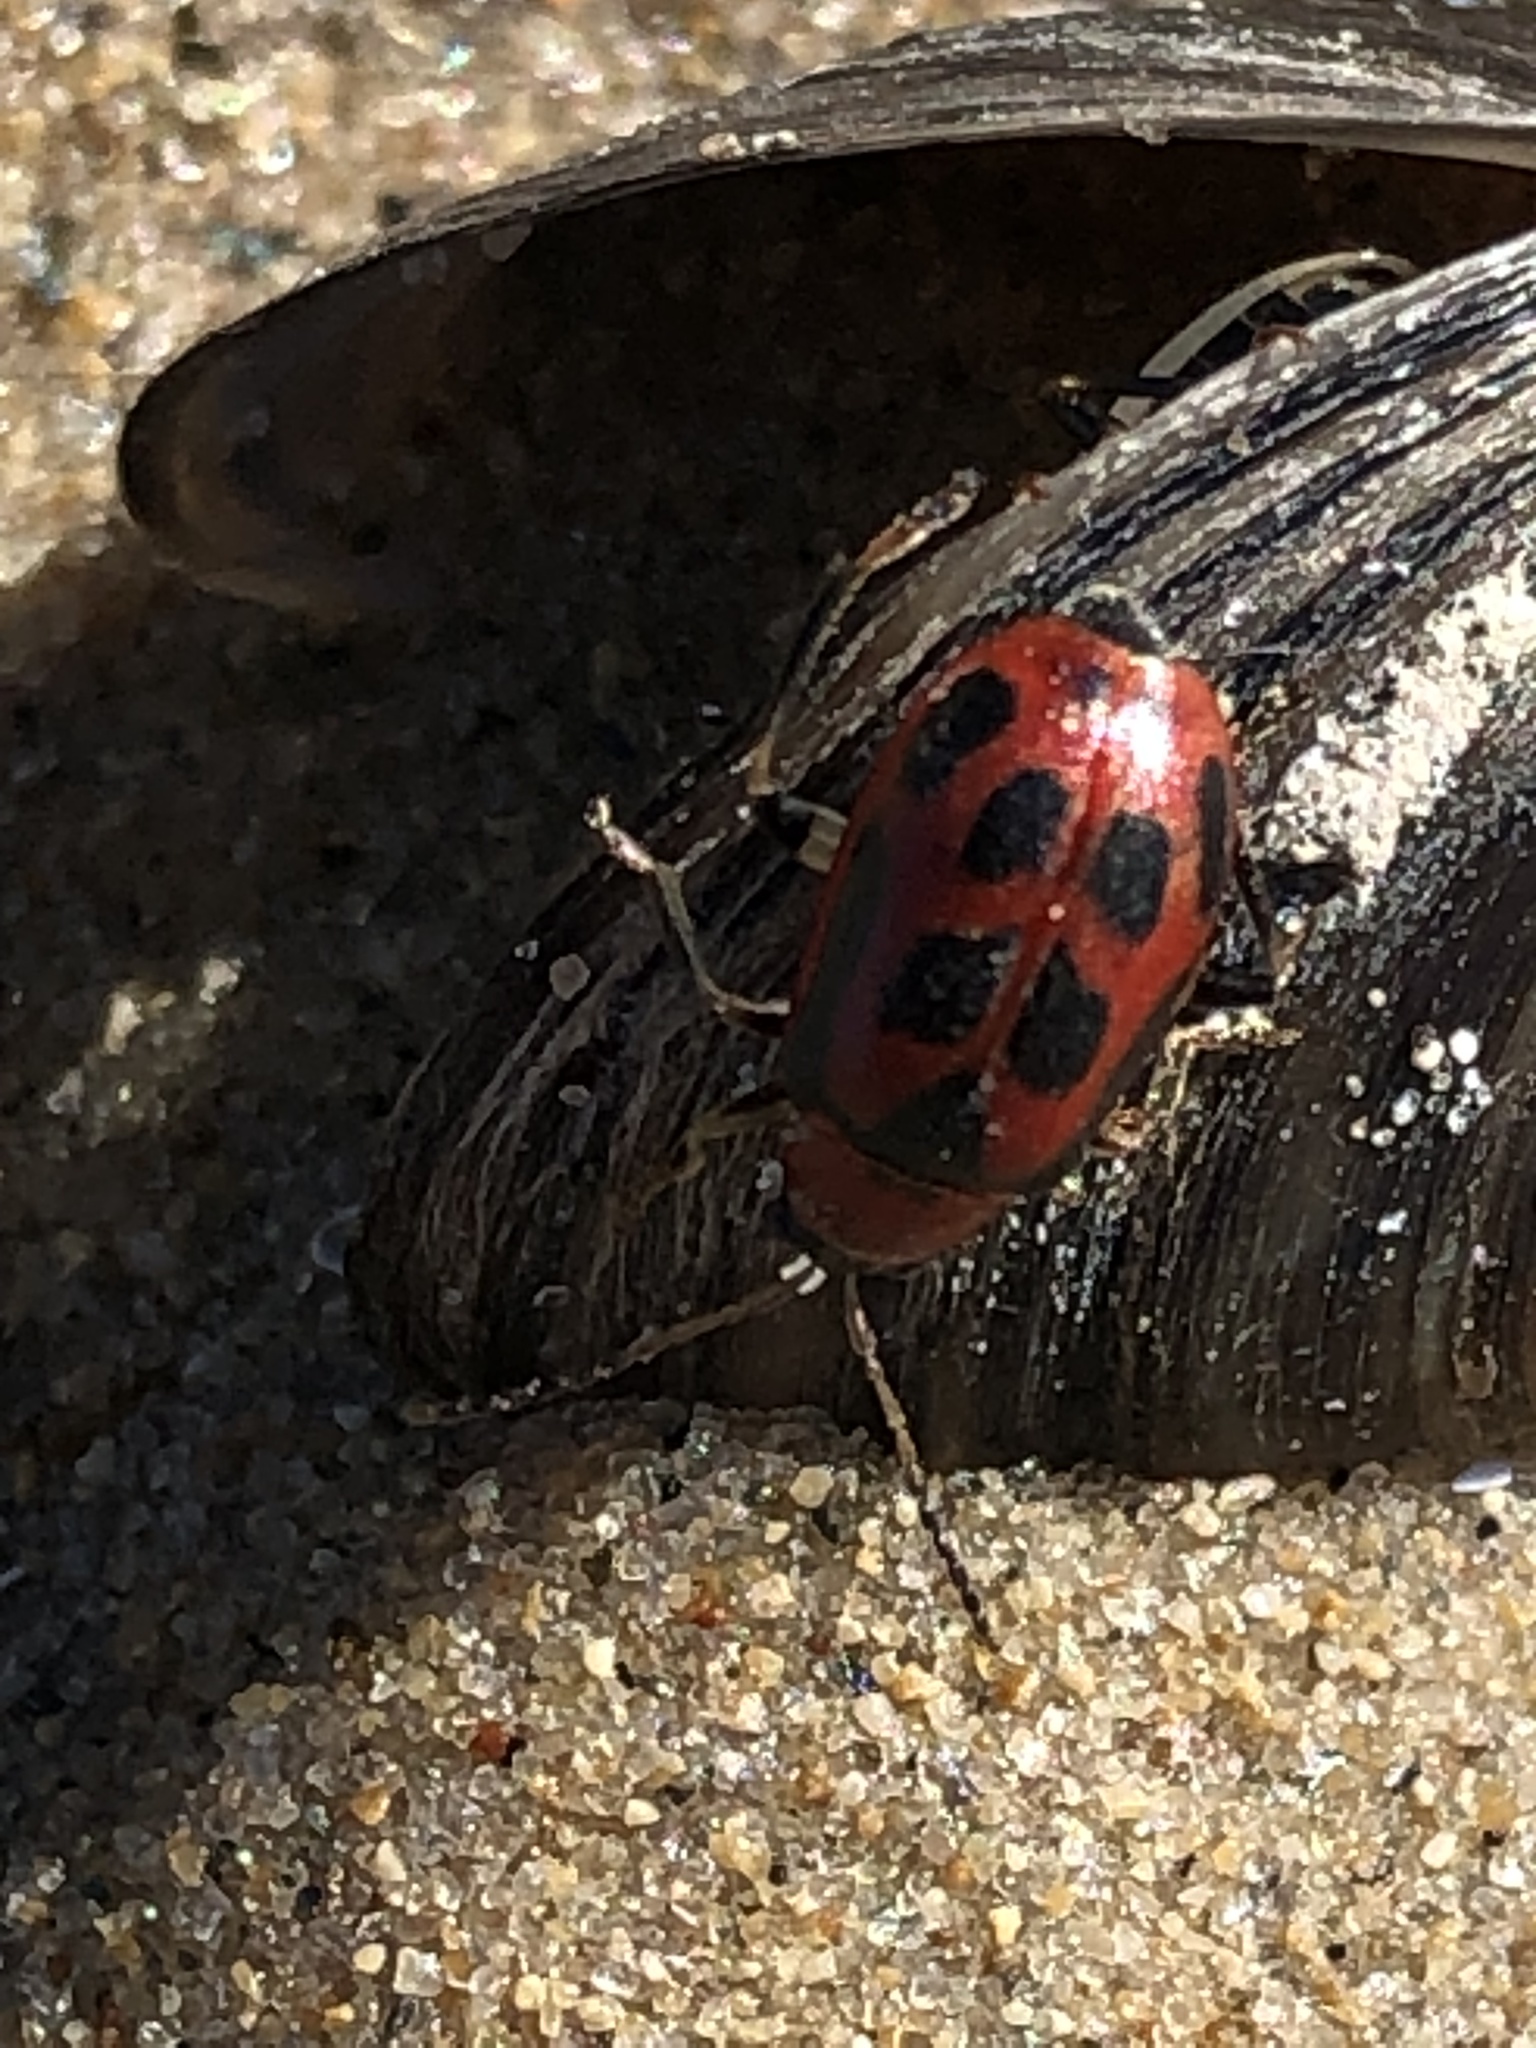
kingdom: Animalia
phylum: Arthropoda
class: Insecta
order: Coleoptera
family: Chrysomelidae
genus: Cerotoma
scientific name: Cerotoma trifurcata
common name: Bean leaf beetle
